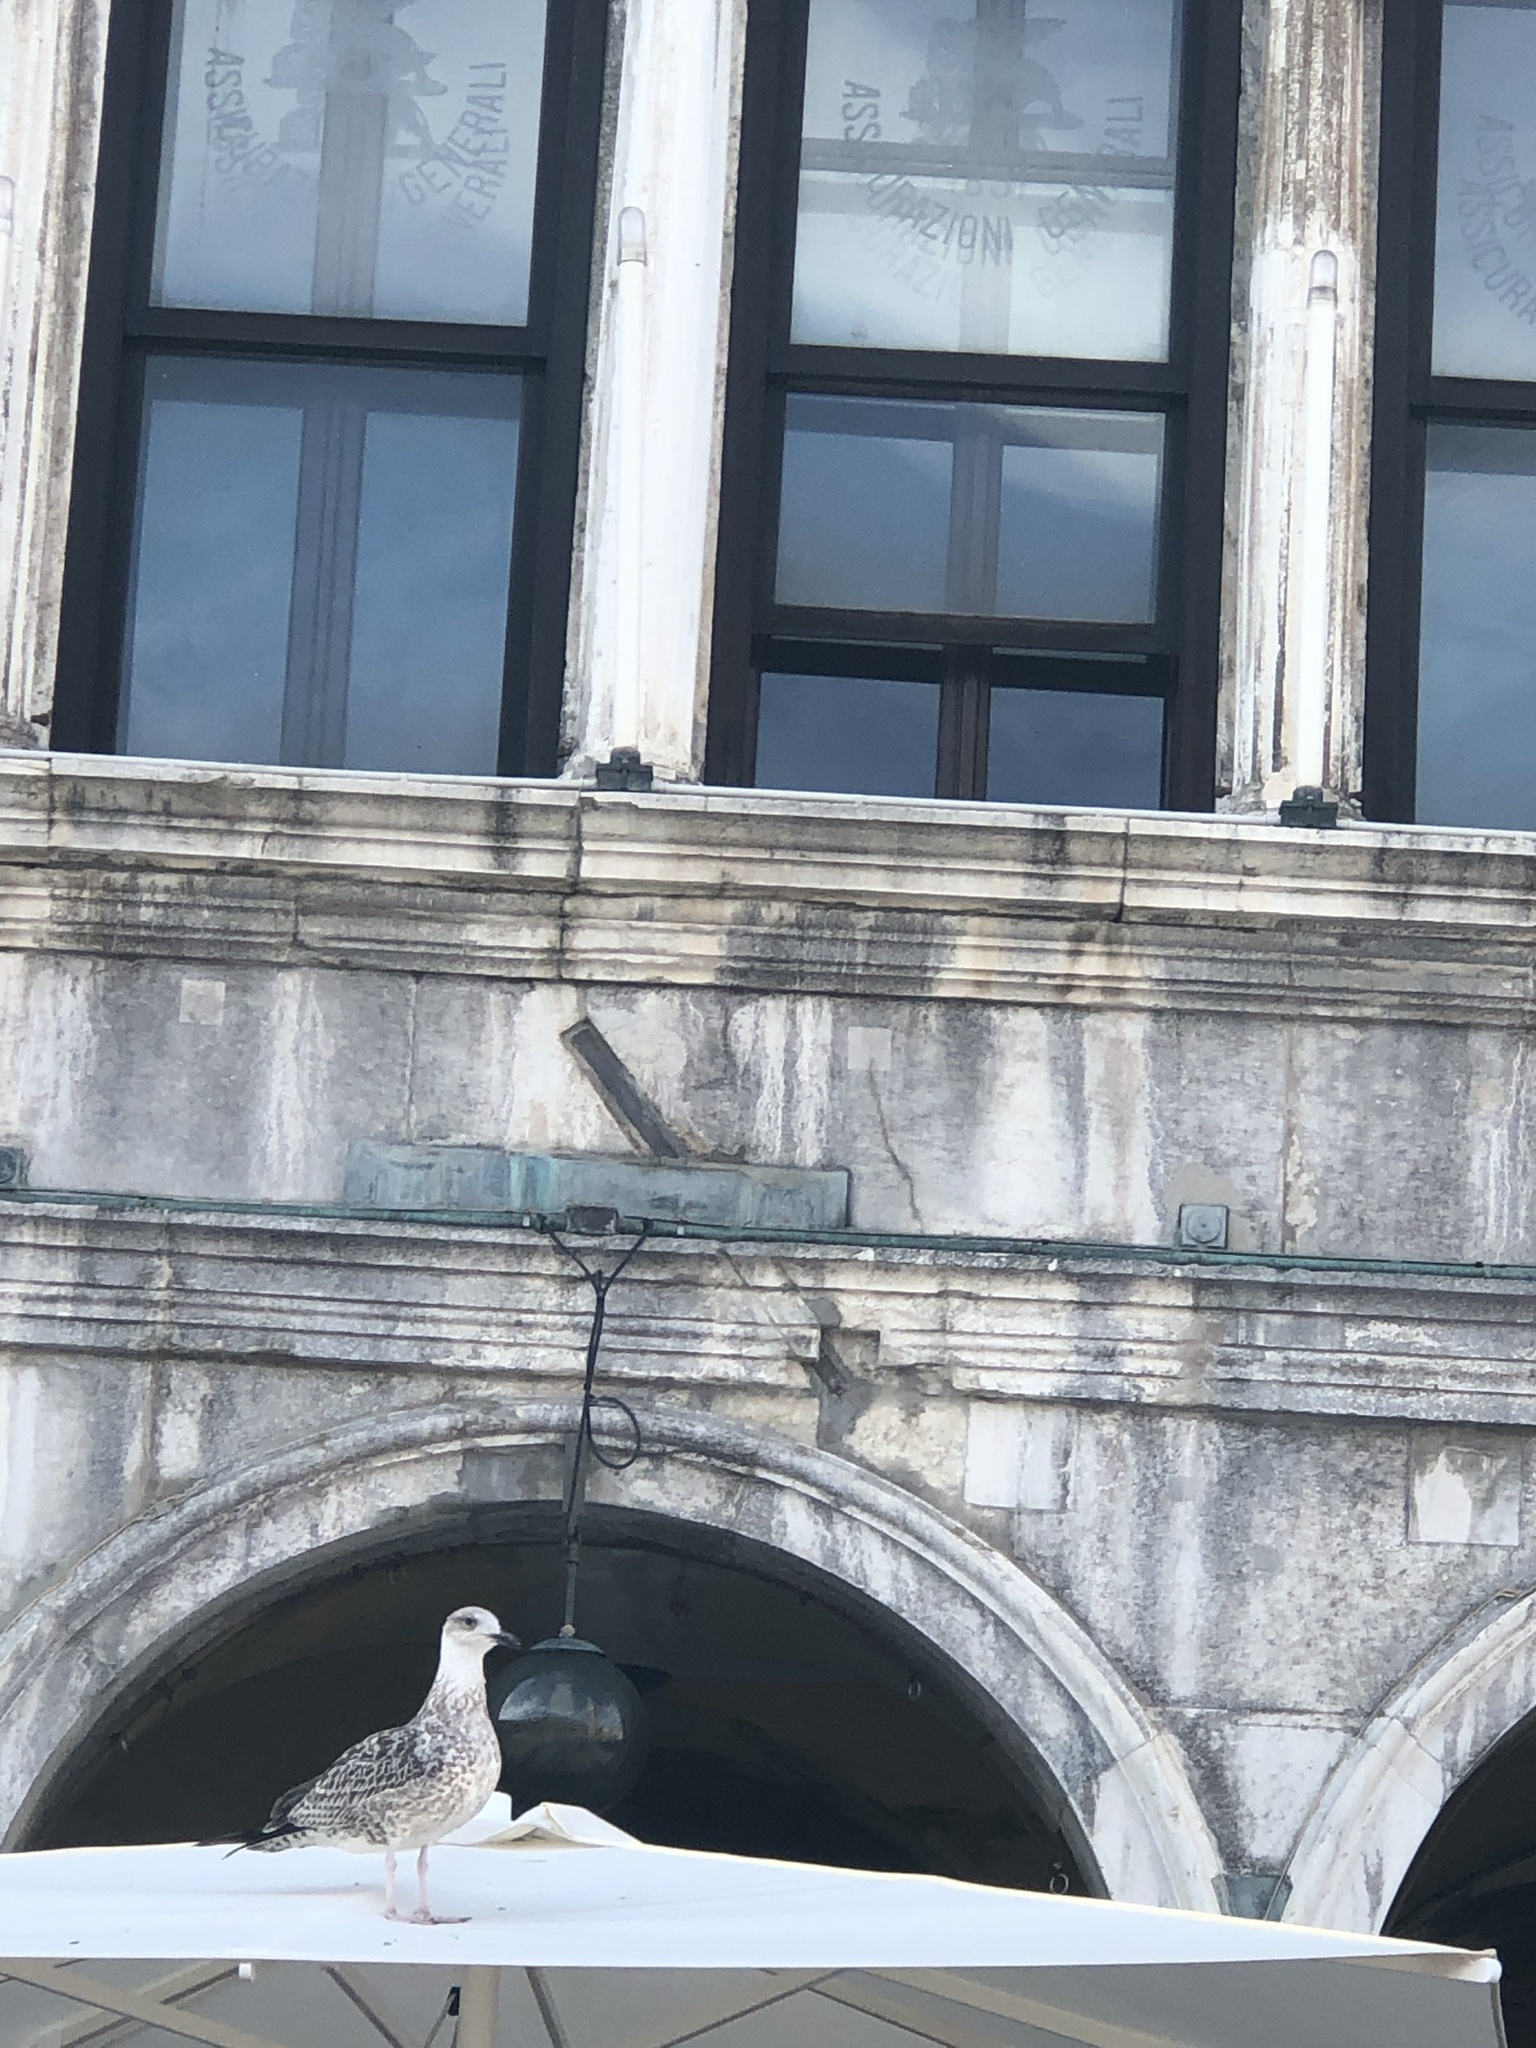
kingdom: Animalia
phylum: Chordata
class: Aves
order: Charadriiformes
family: Laridae
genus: Larus
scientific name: Larus michahellis
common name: Yellow-legged gull
